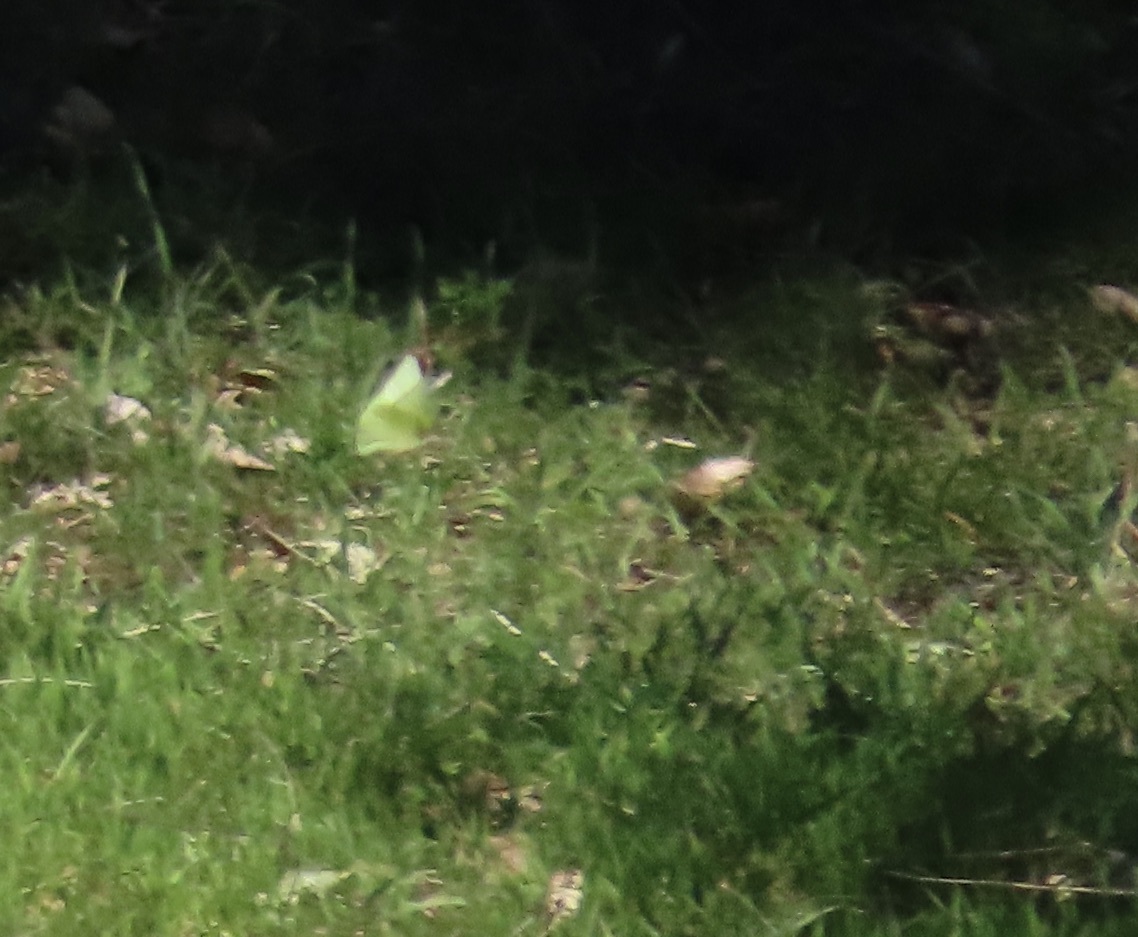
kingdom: Animalia
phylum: Arthropoda
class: Insecta
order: Lepidoptera
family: Pieridae
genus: Zerene
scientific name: Zerene eurydice
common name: California dogface
